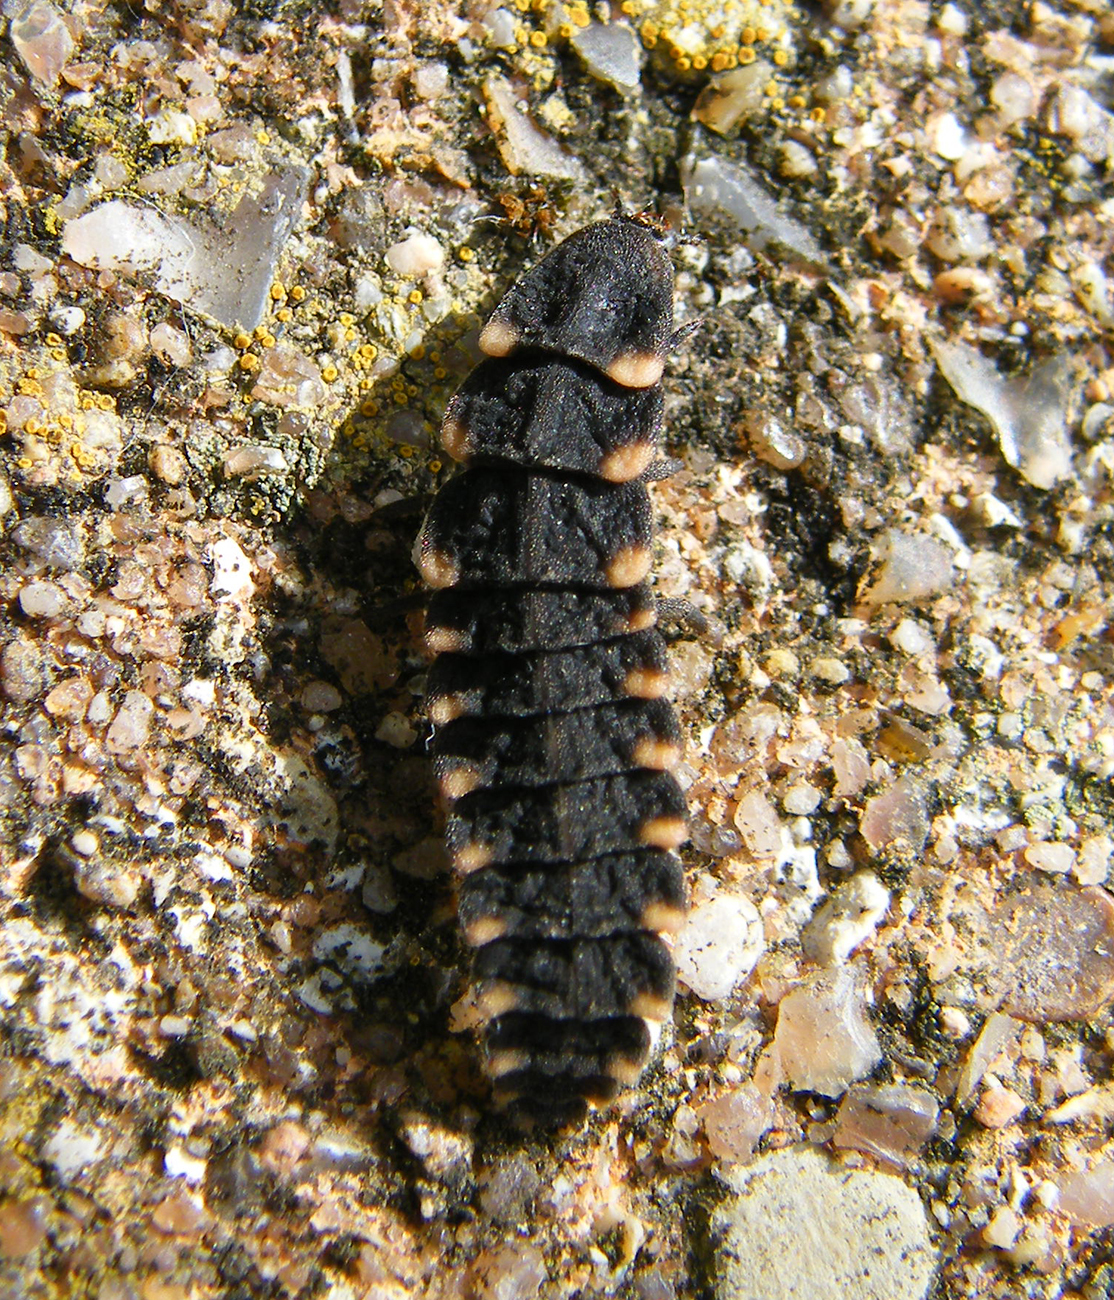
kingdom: Animalia
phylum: Arthropoda
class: Insecta
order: Coleoptera
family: Lampyridae
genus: Lampyris
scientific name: Lampyris noctiluca
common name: Glow-worm
